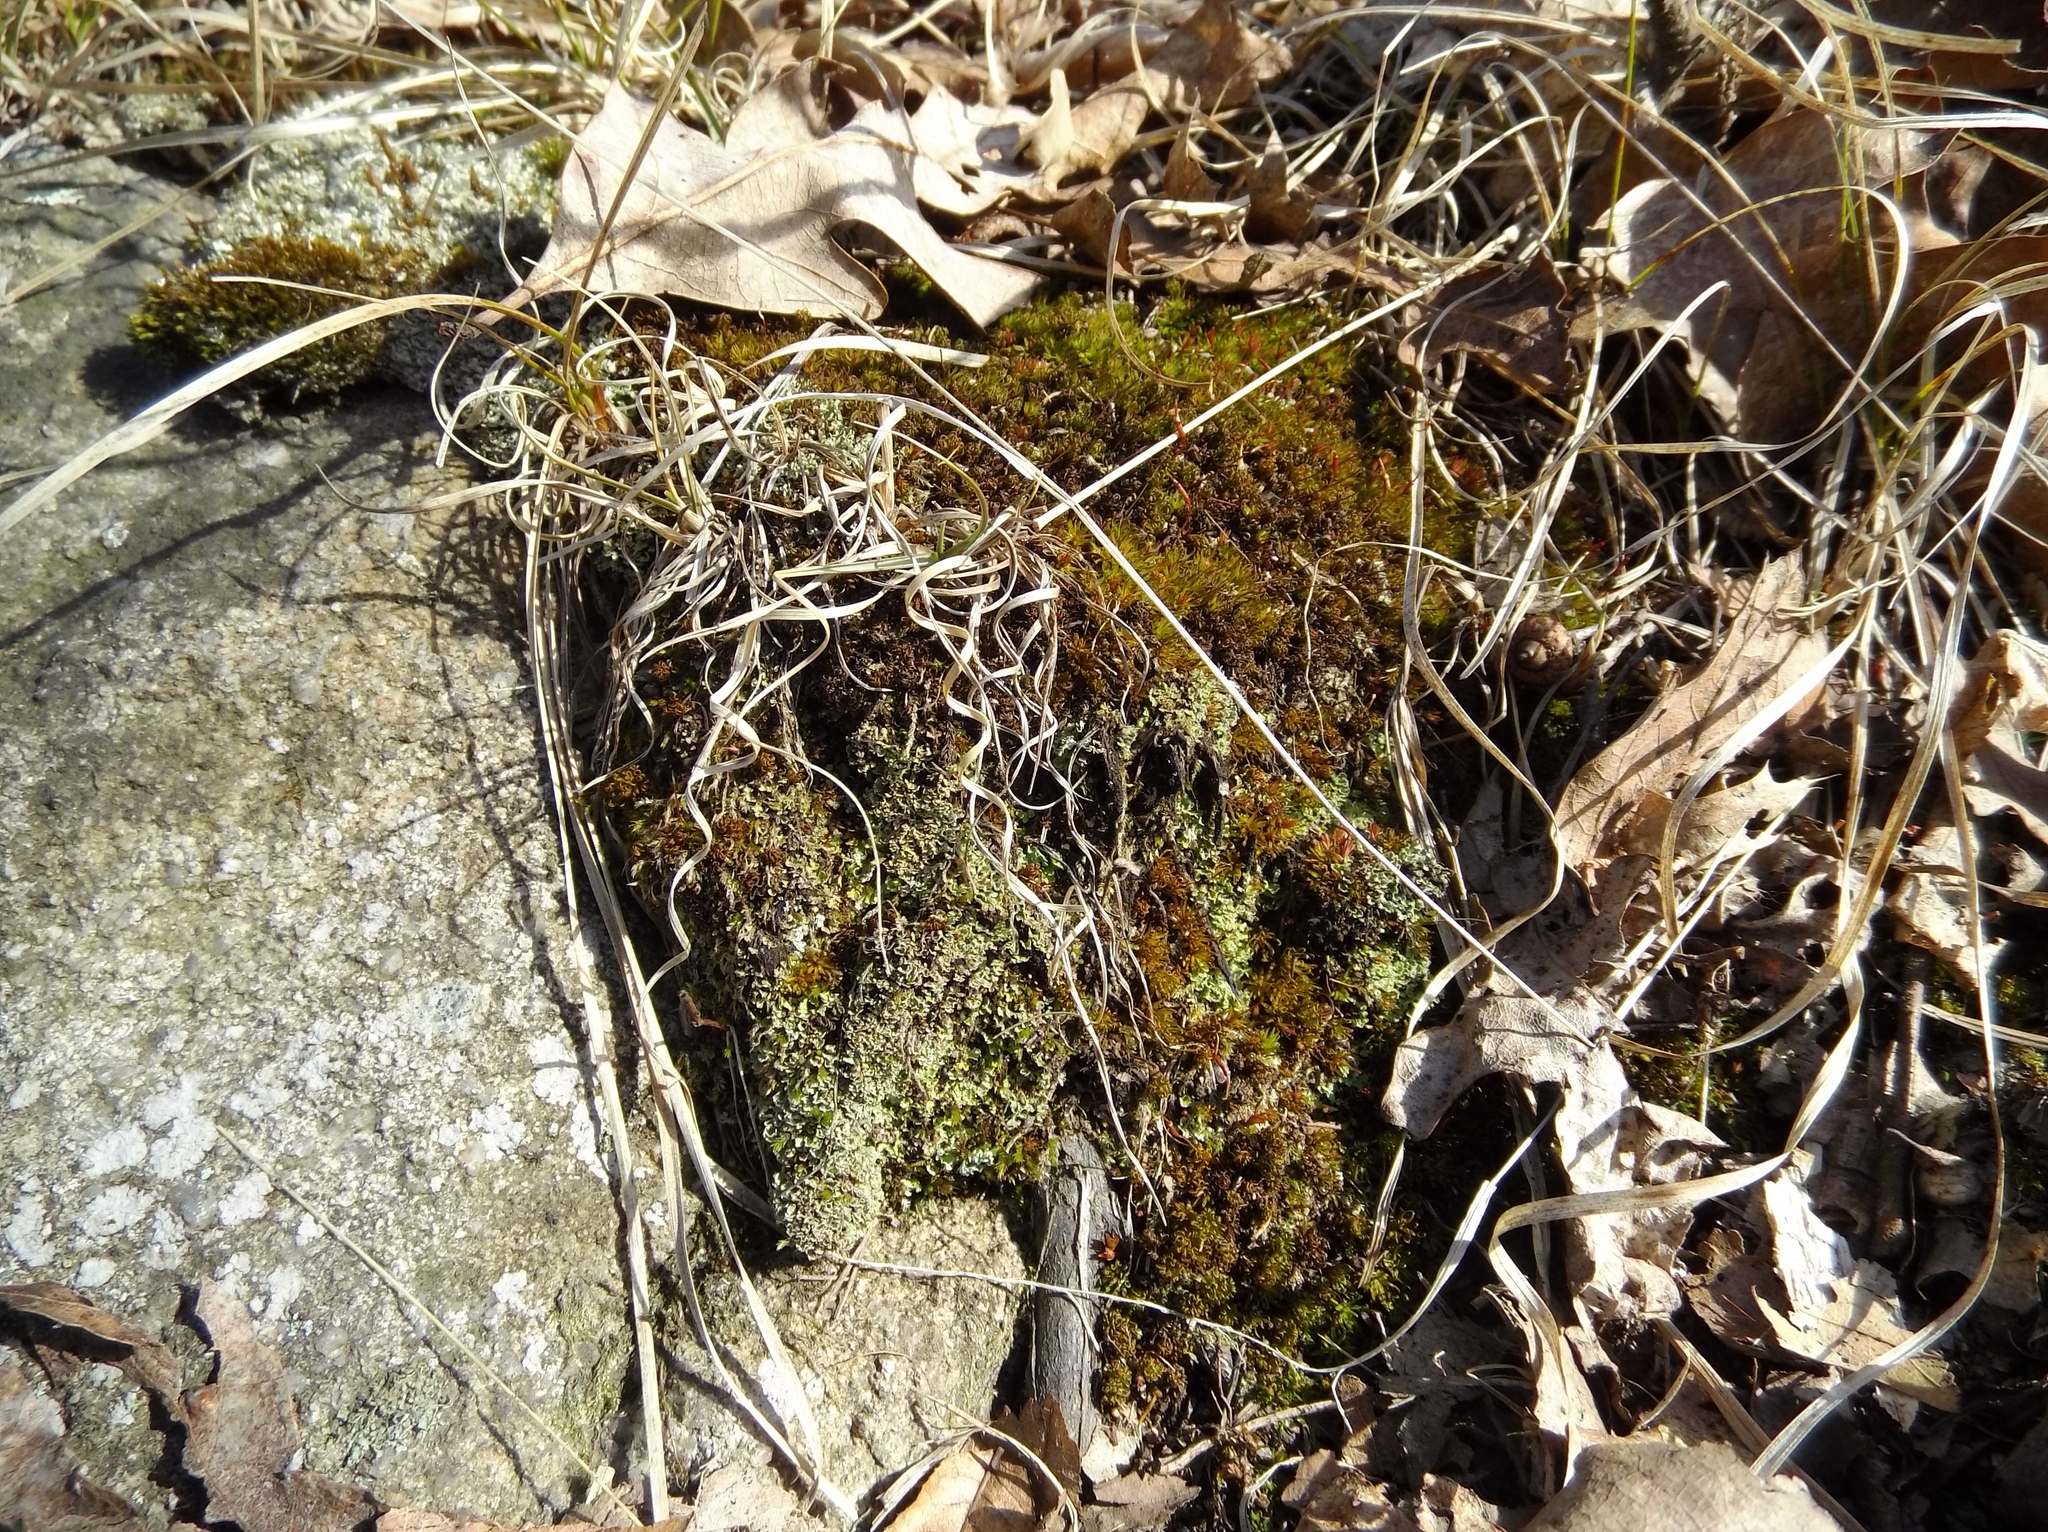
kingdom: Plantae
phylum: Tracheophyta
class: Liliopsida
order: Poales
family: Poaceae
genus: Danthonia
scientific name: Danthonia spicata
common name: Common wild oatgrass
